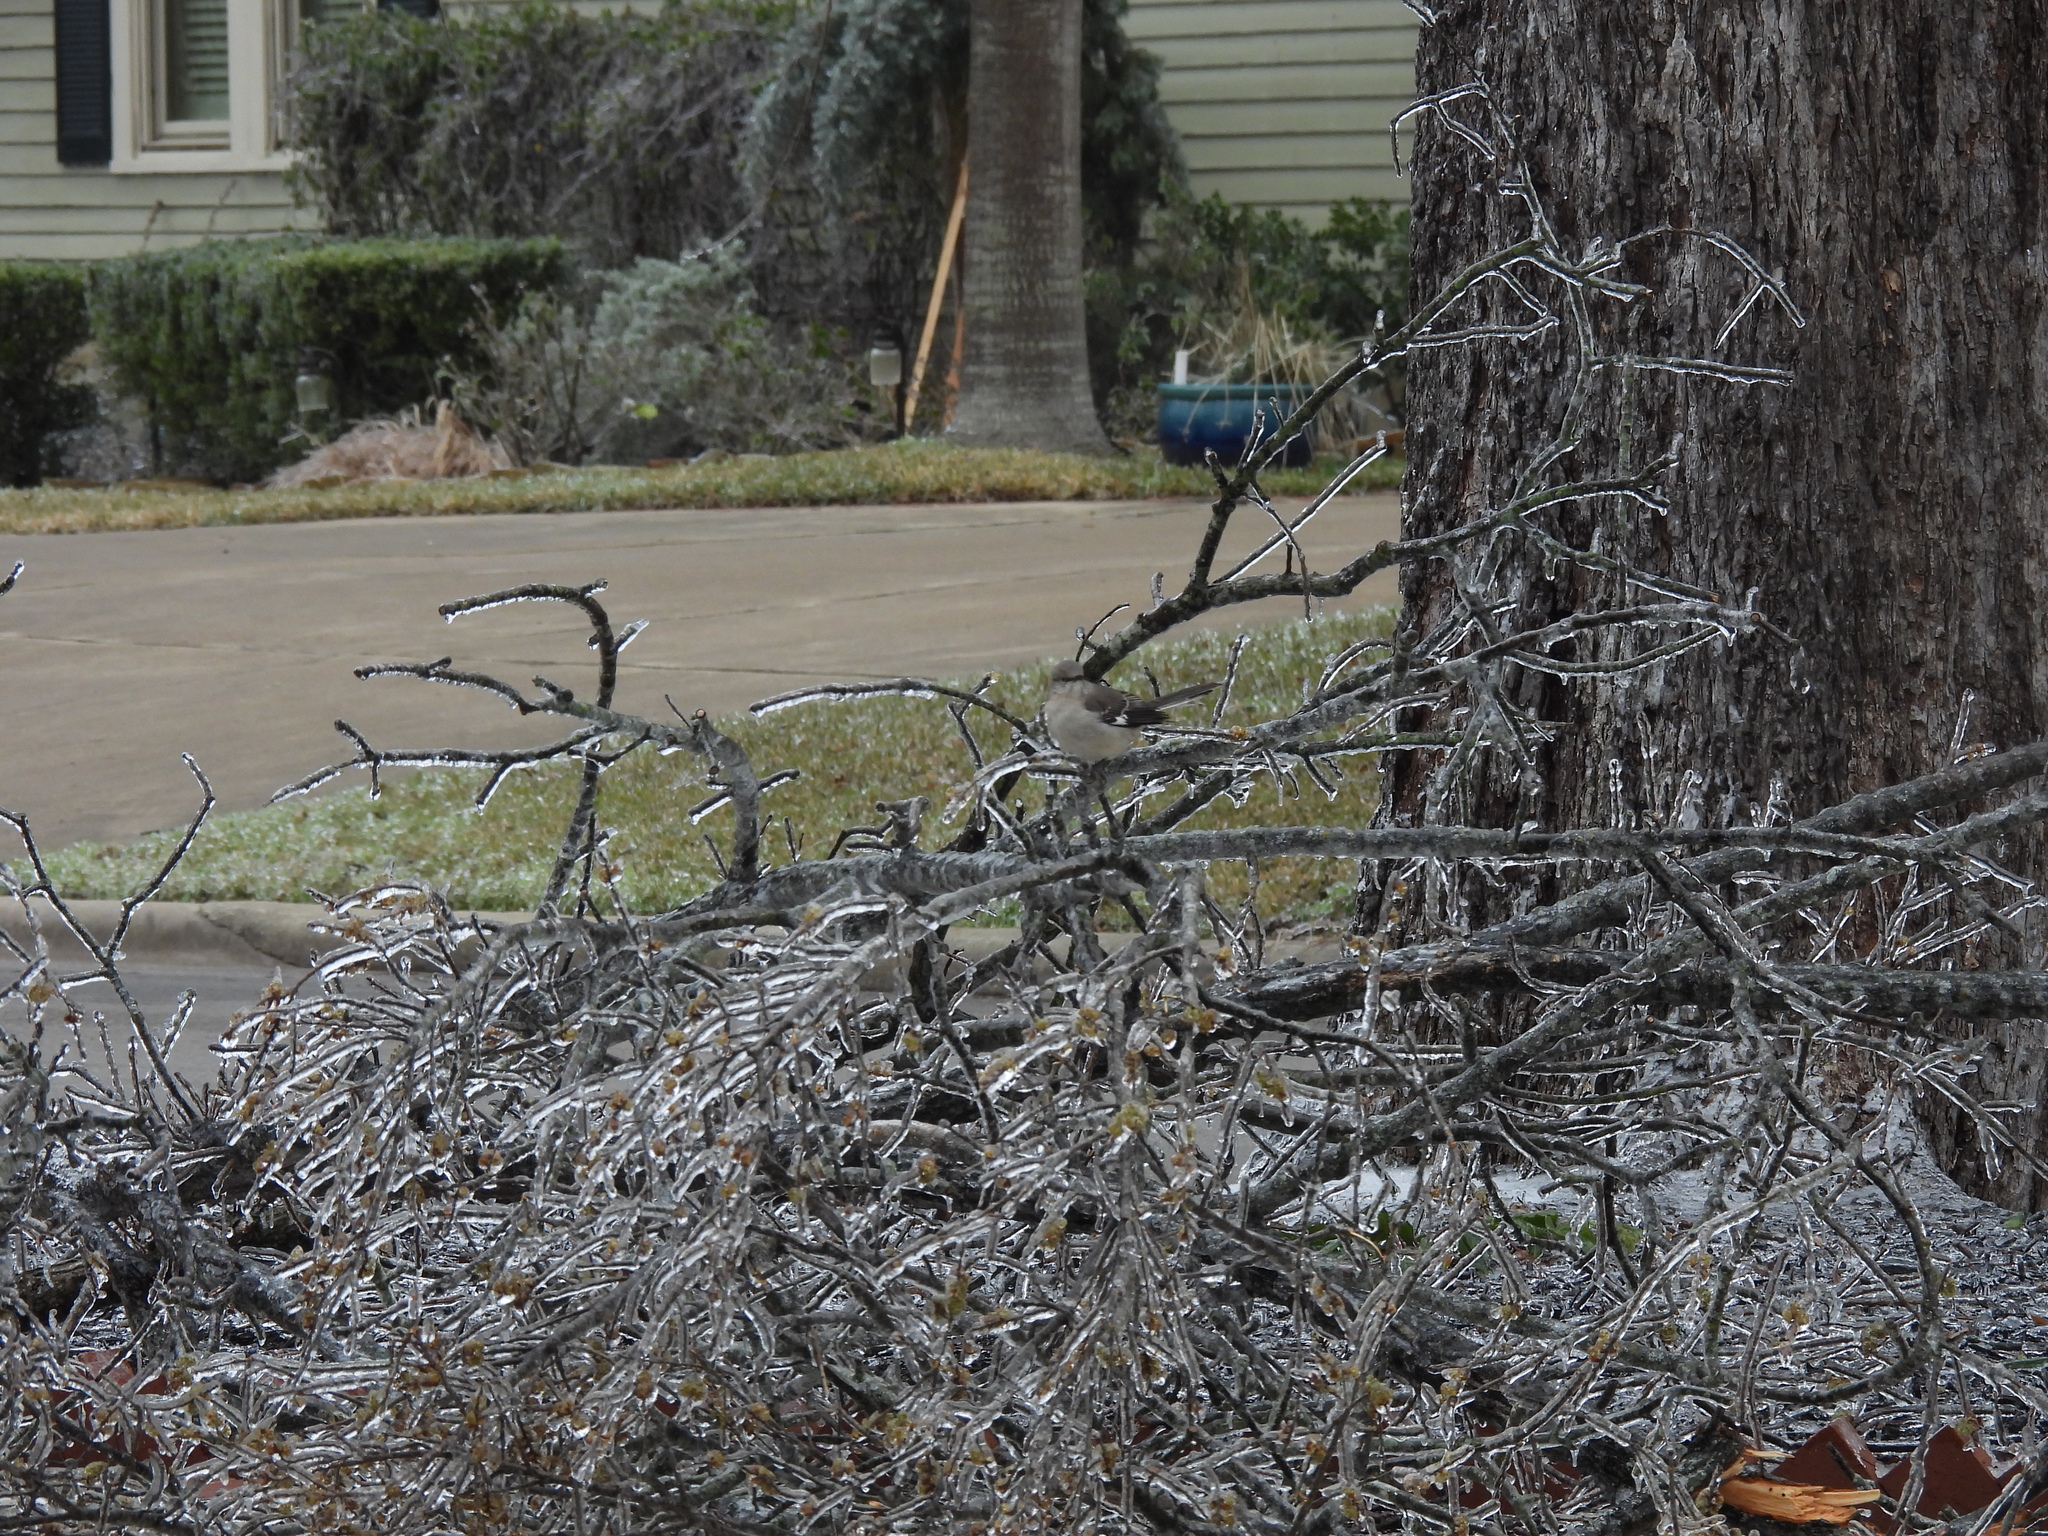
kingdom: Animalia
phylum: Chordata
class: Aves
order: Passeriformes
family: Mimidae
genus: Mimus
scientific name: Mimus polyglottos
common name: Northern mockingbird
